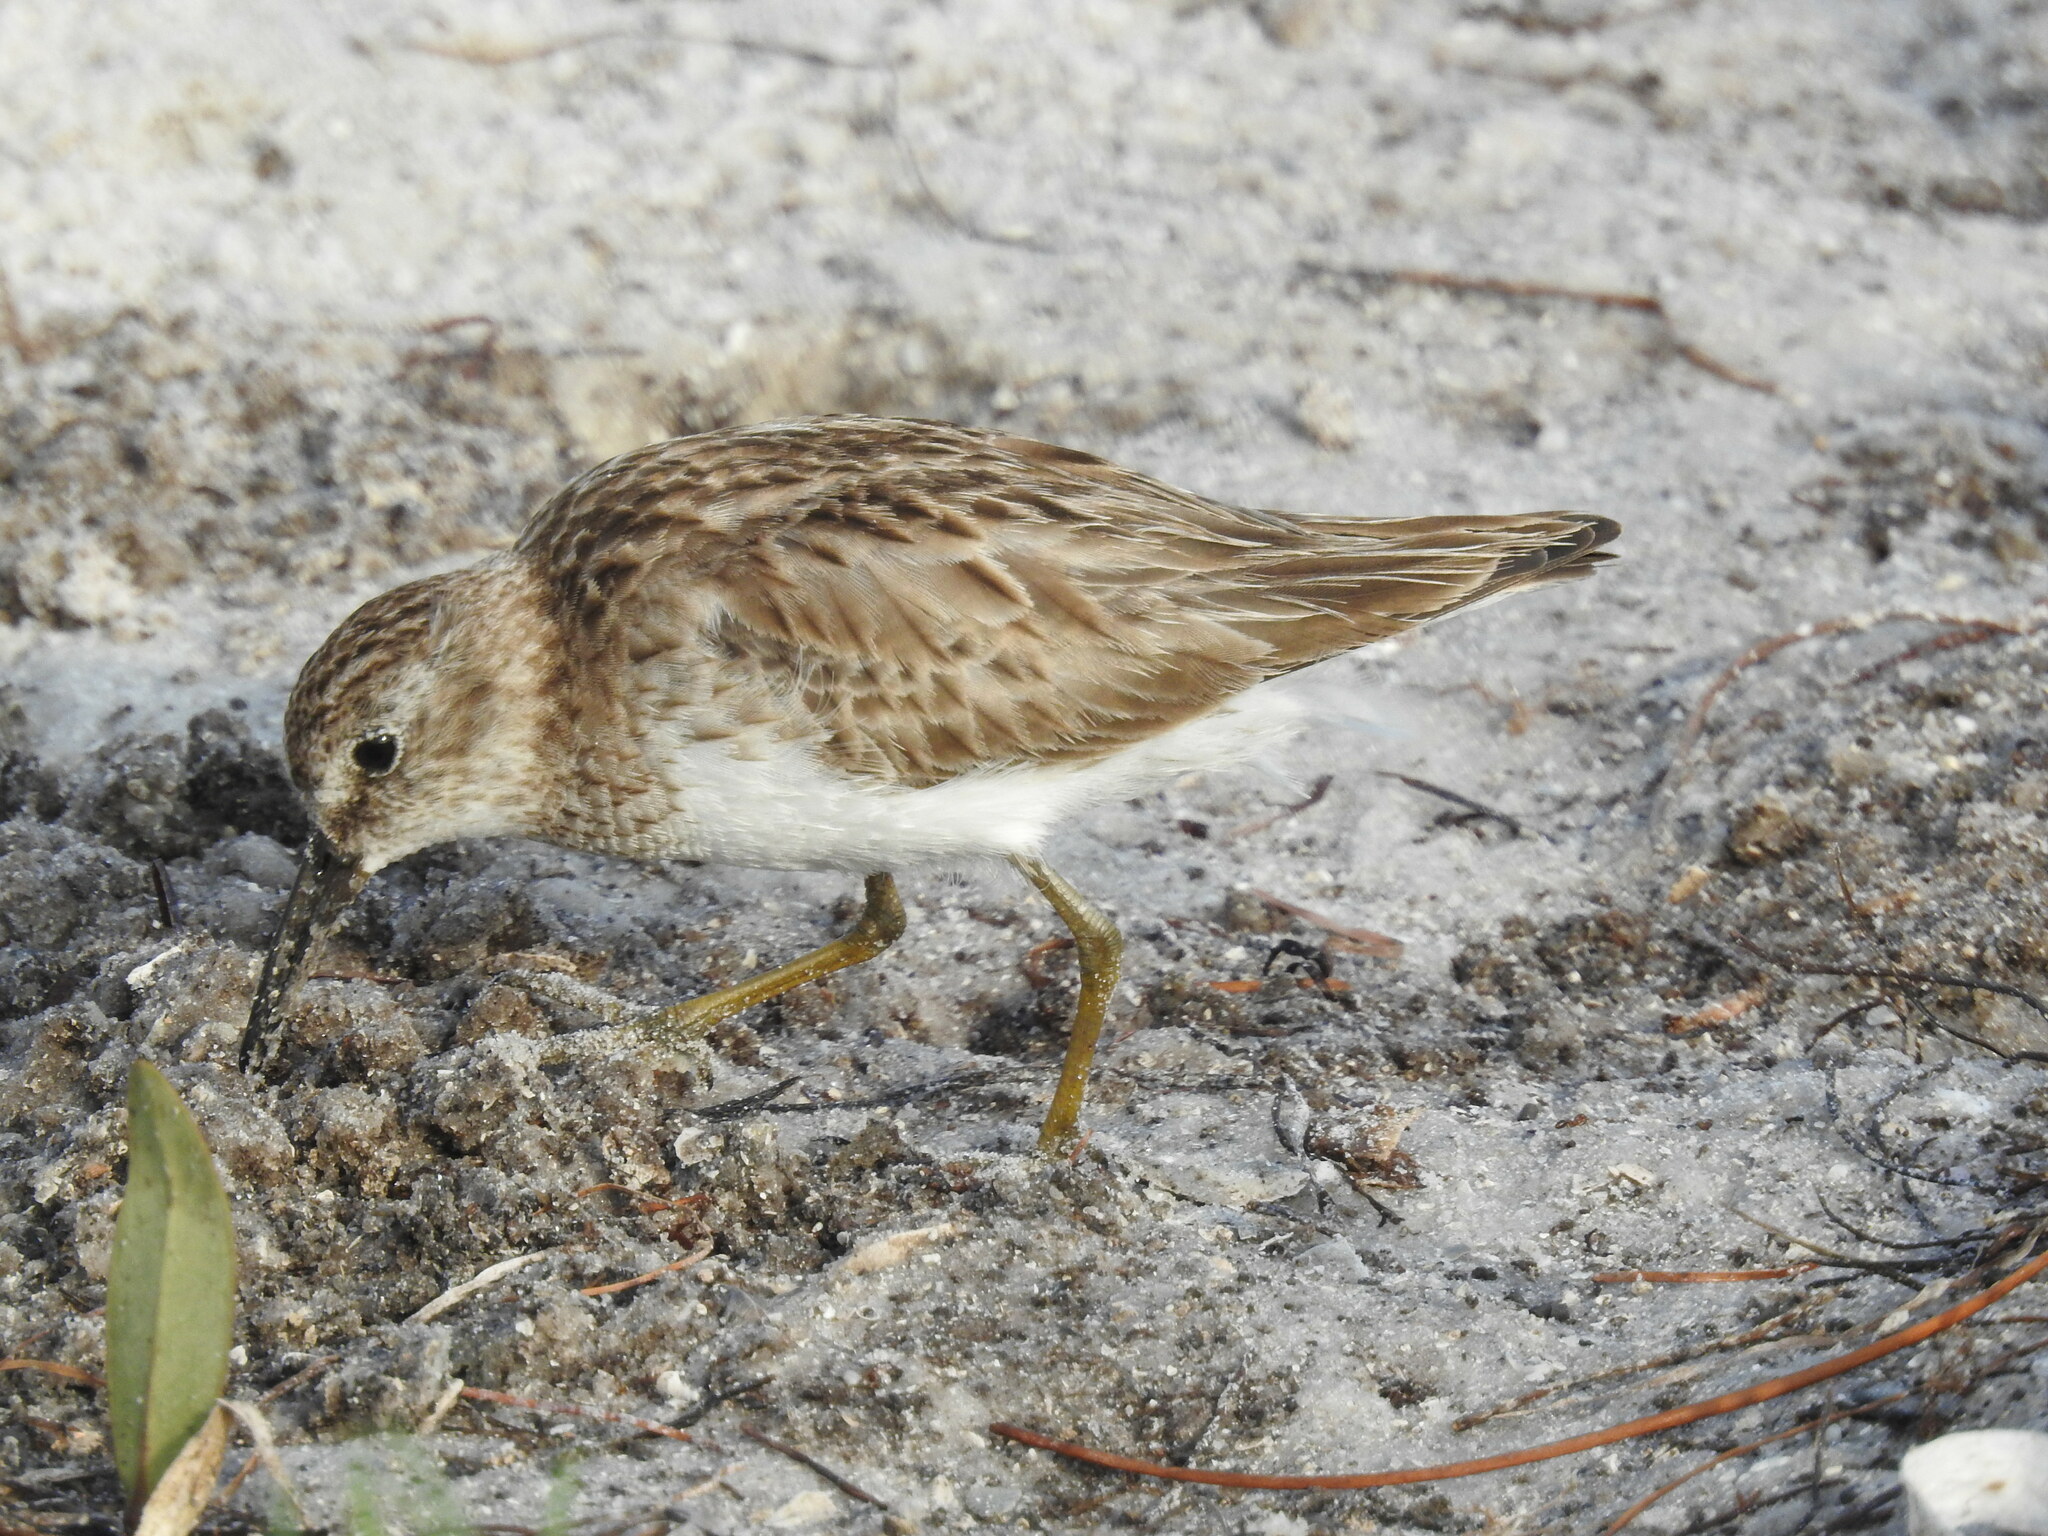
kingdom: Animalia
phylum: Chordata
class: Aves
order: Charadriiformes
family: Scolopacidae
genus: Calidris
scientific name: Calidris minutilla
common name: Least sandpiper
